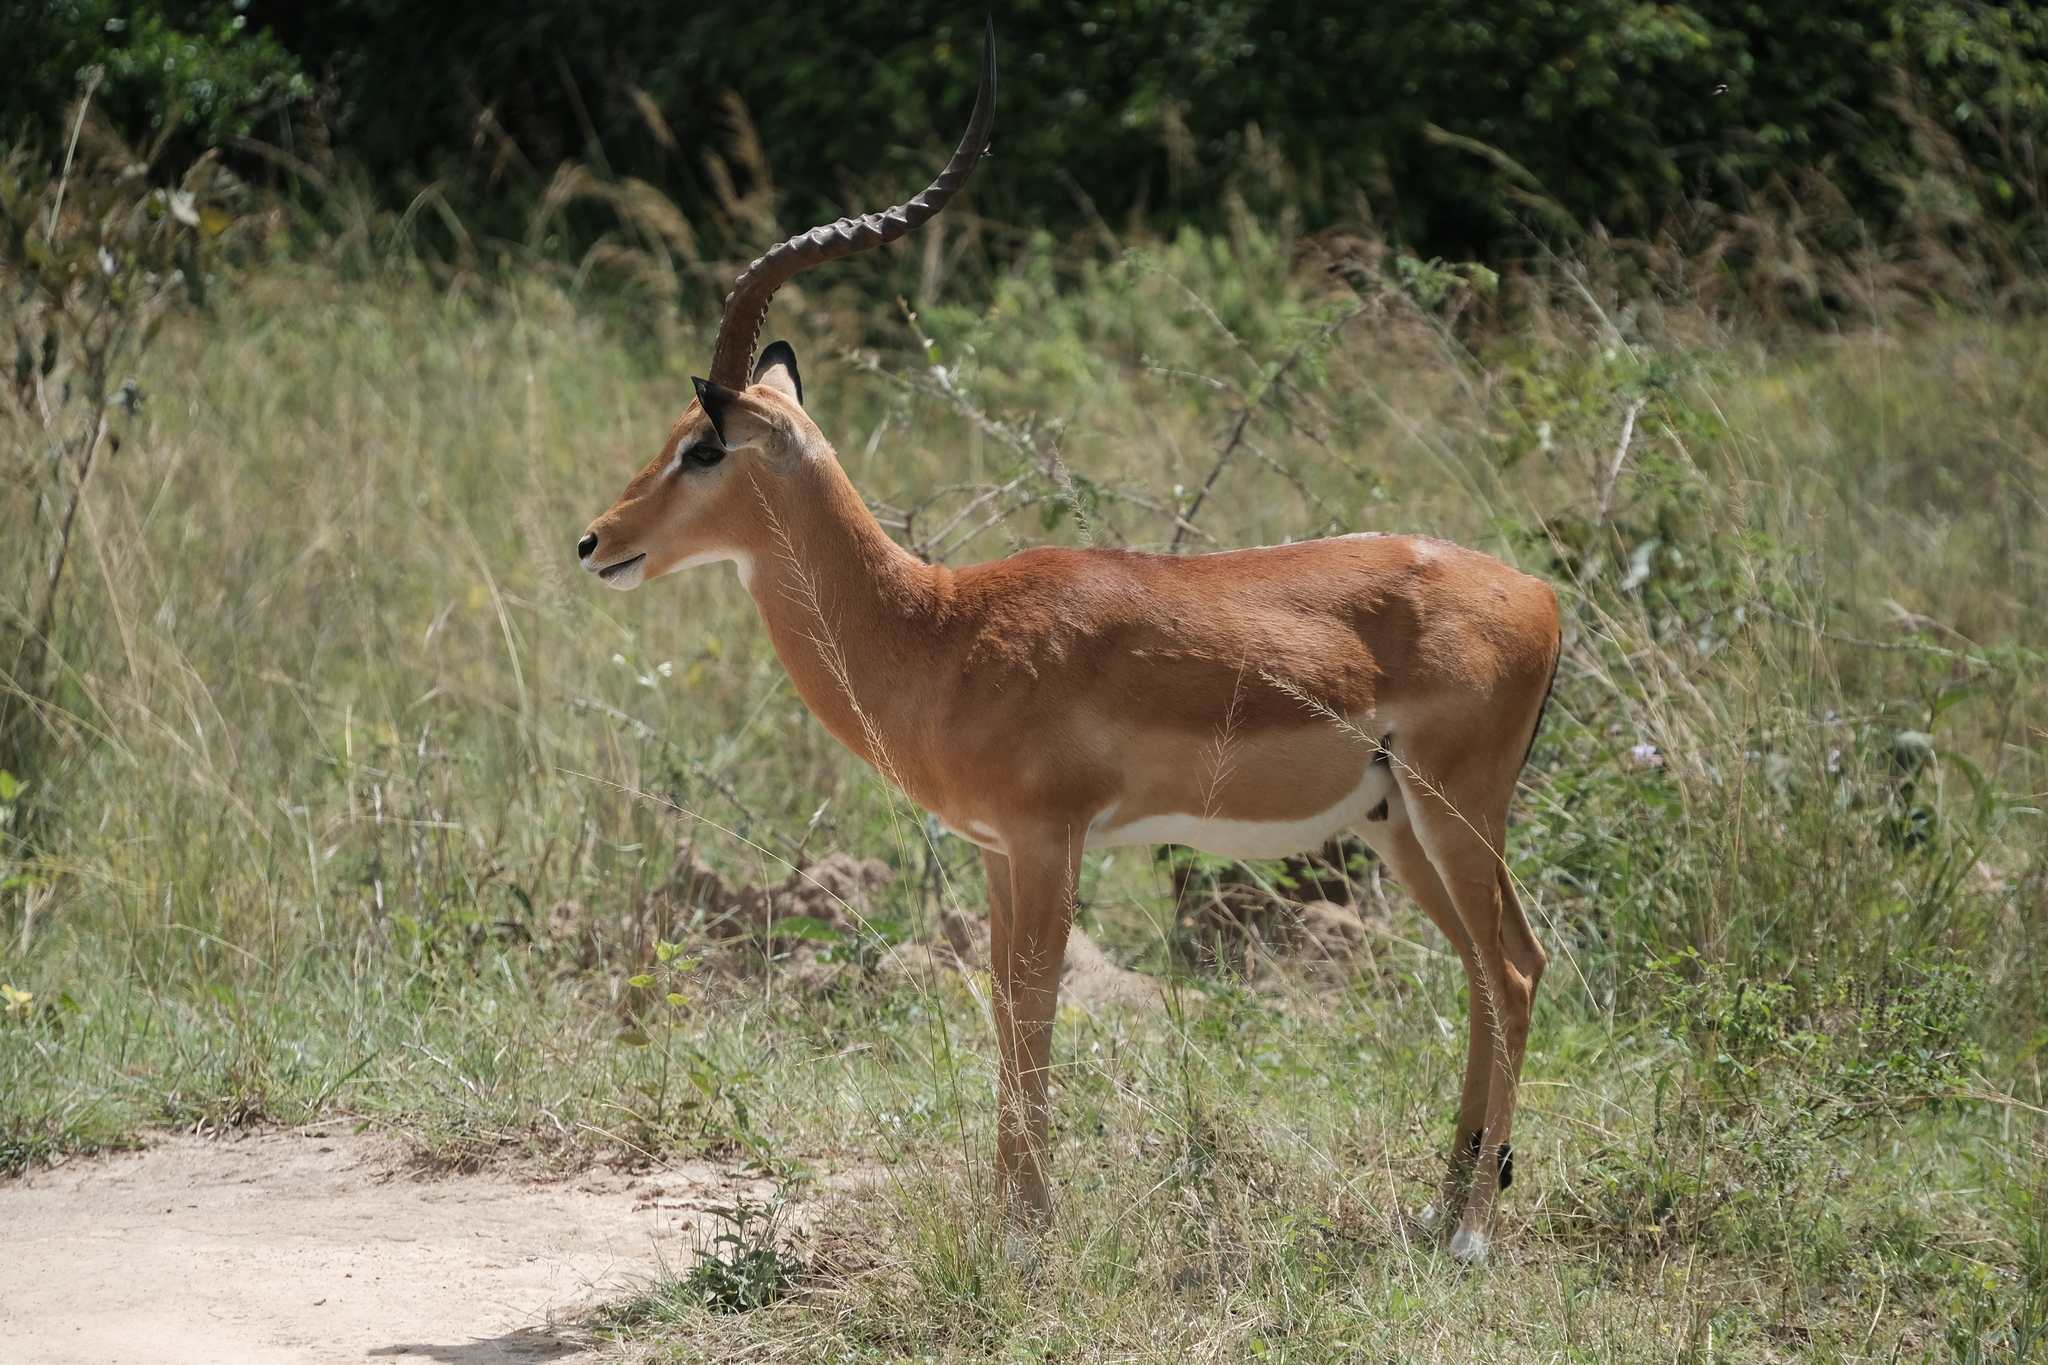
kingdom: Animalia
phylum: Chordata
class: Mammalia
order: Artiodactyla
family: Bovidae
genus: Aepyceros
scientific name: Aepyceros melampus
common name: Impala
